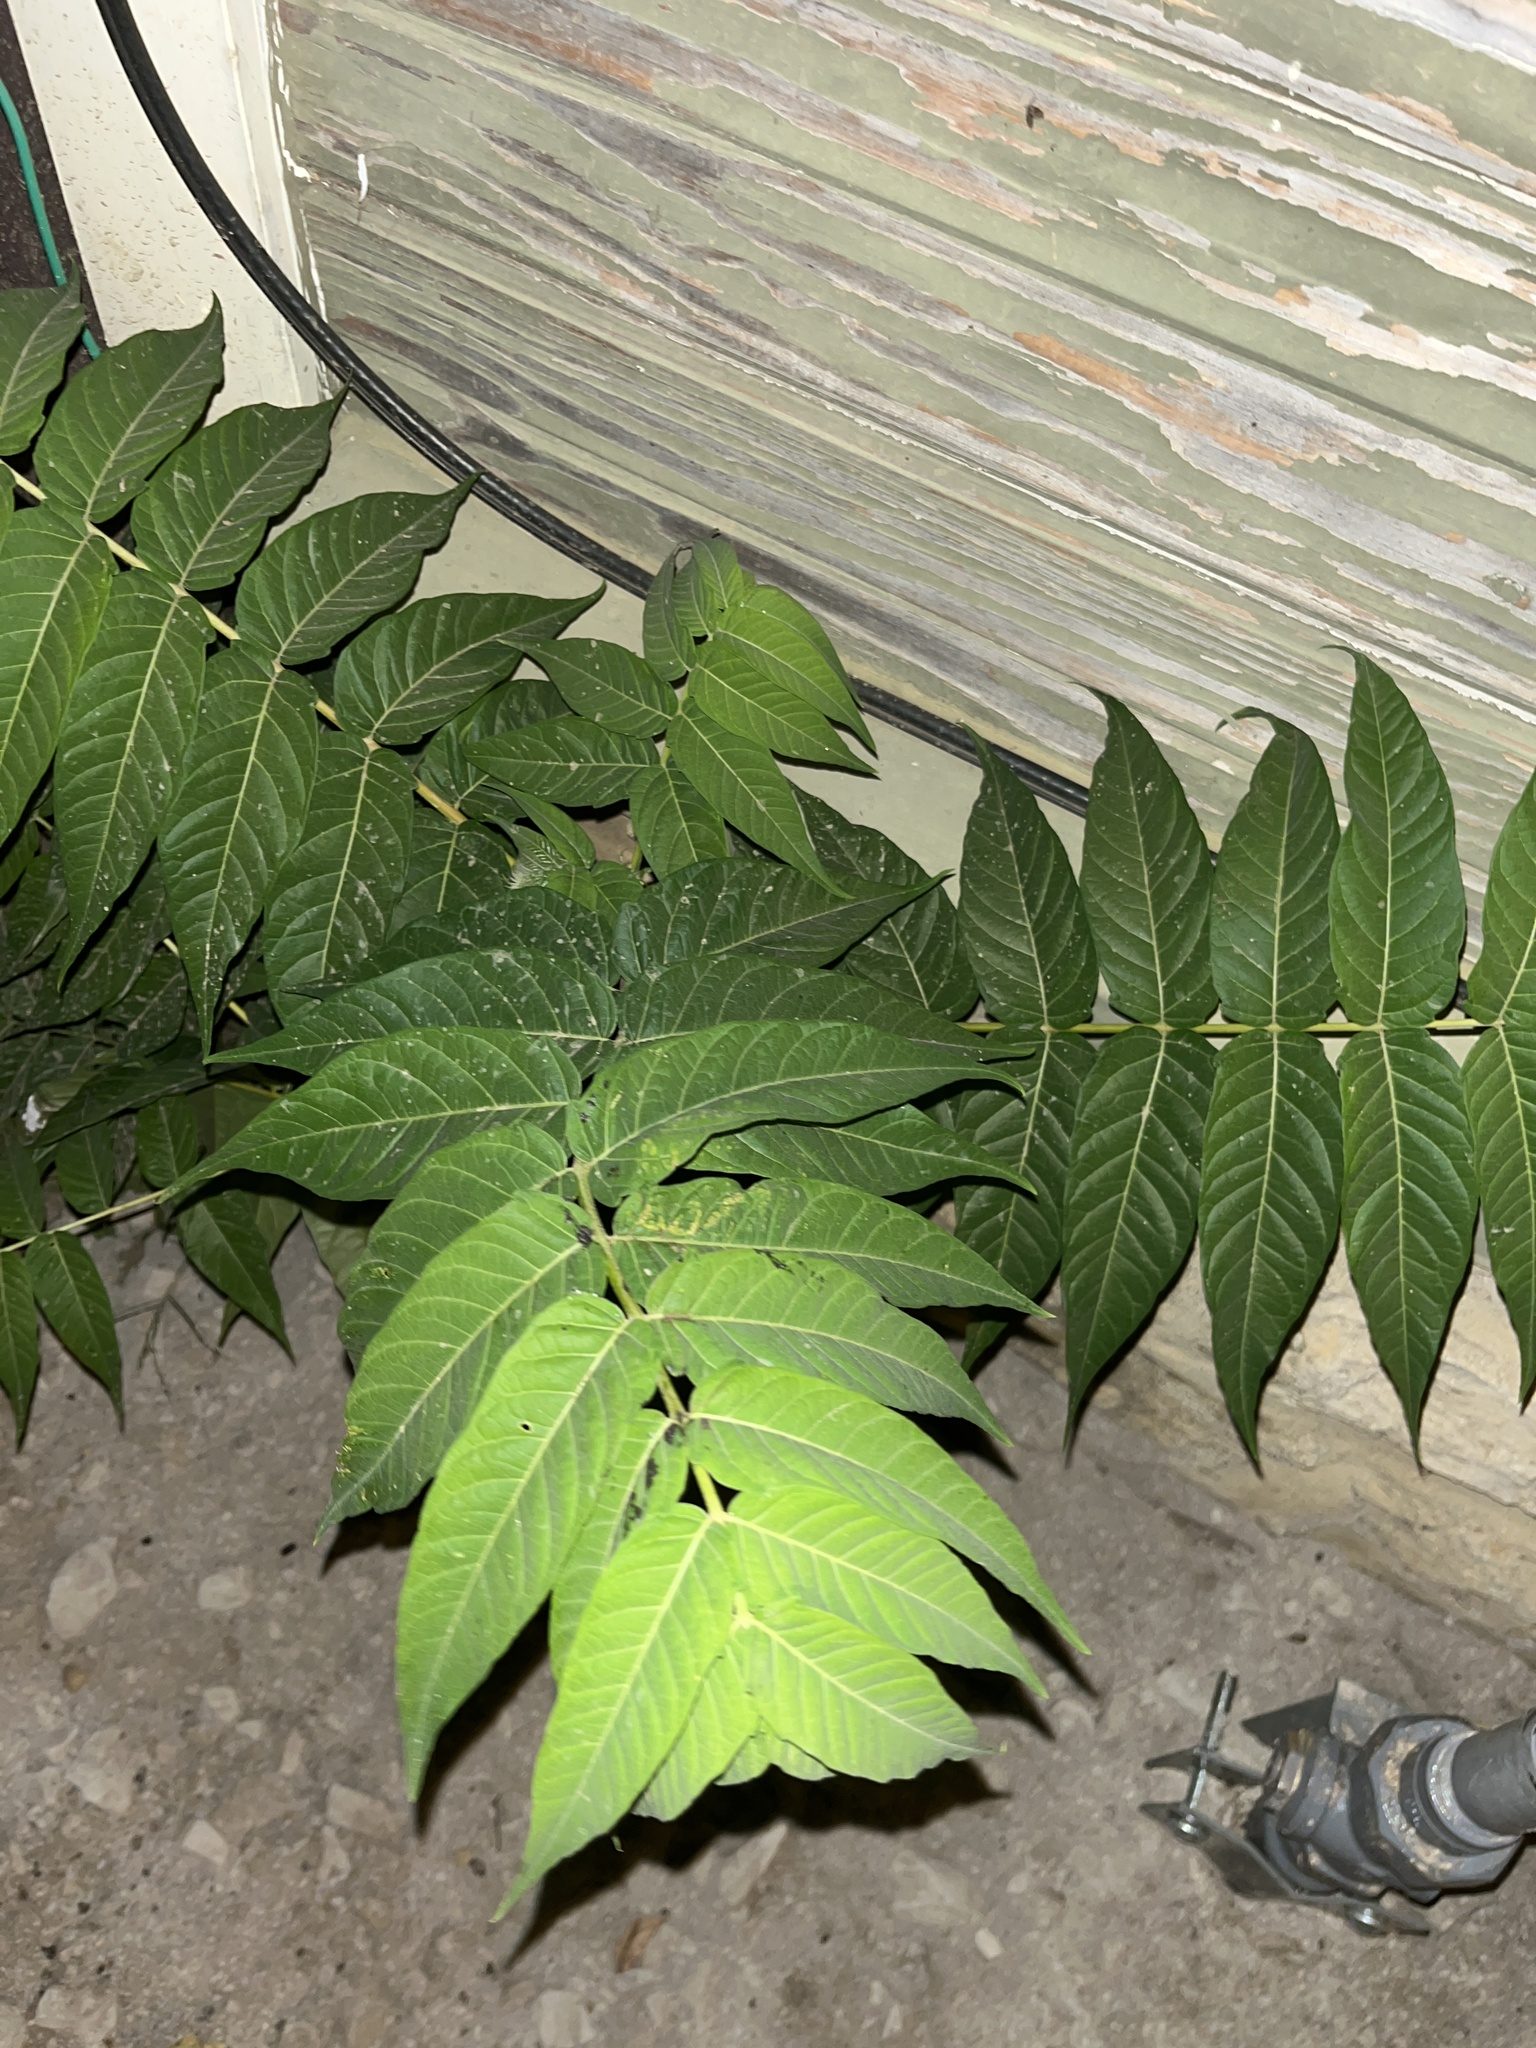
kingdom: Plantae
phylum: Tracheophyta
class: Magnoliopsida
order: Sapindales
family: Simaroubaceae
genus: Ailanthus
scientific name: Ailanthus altissima
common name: Tree-of-heaven
